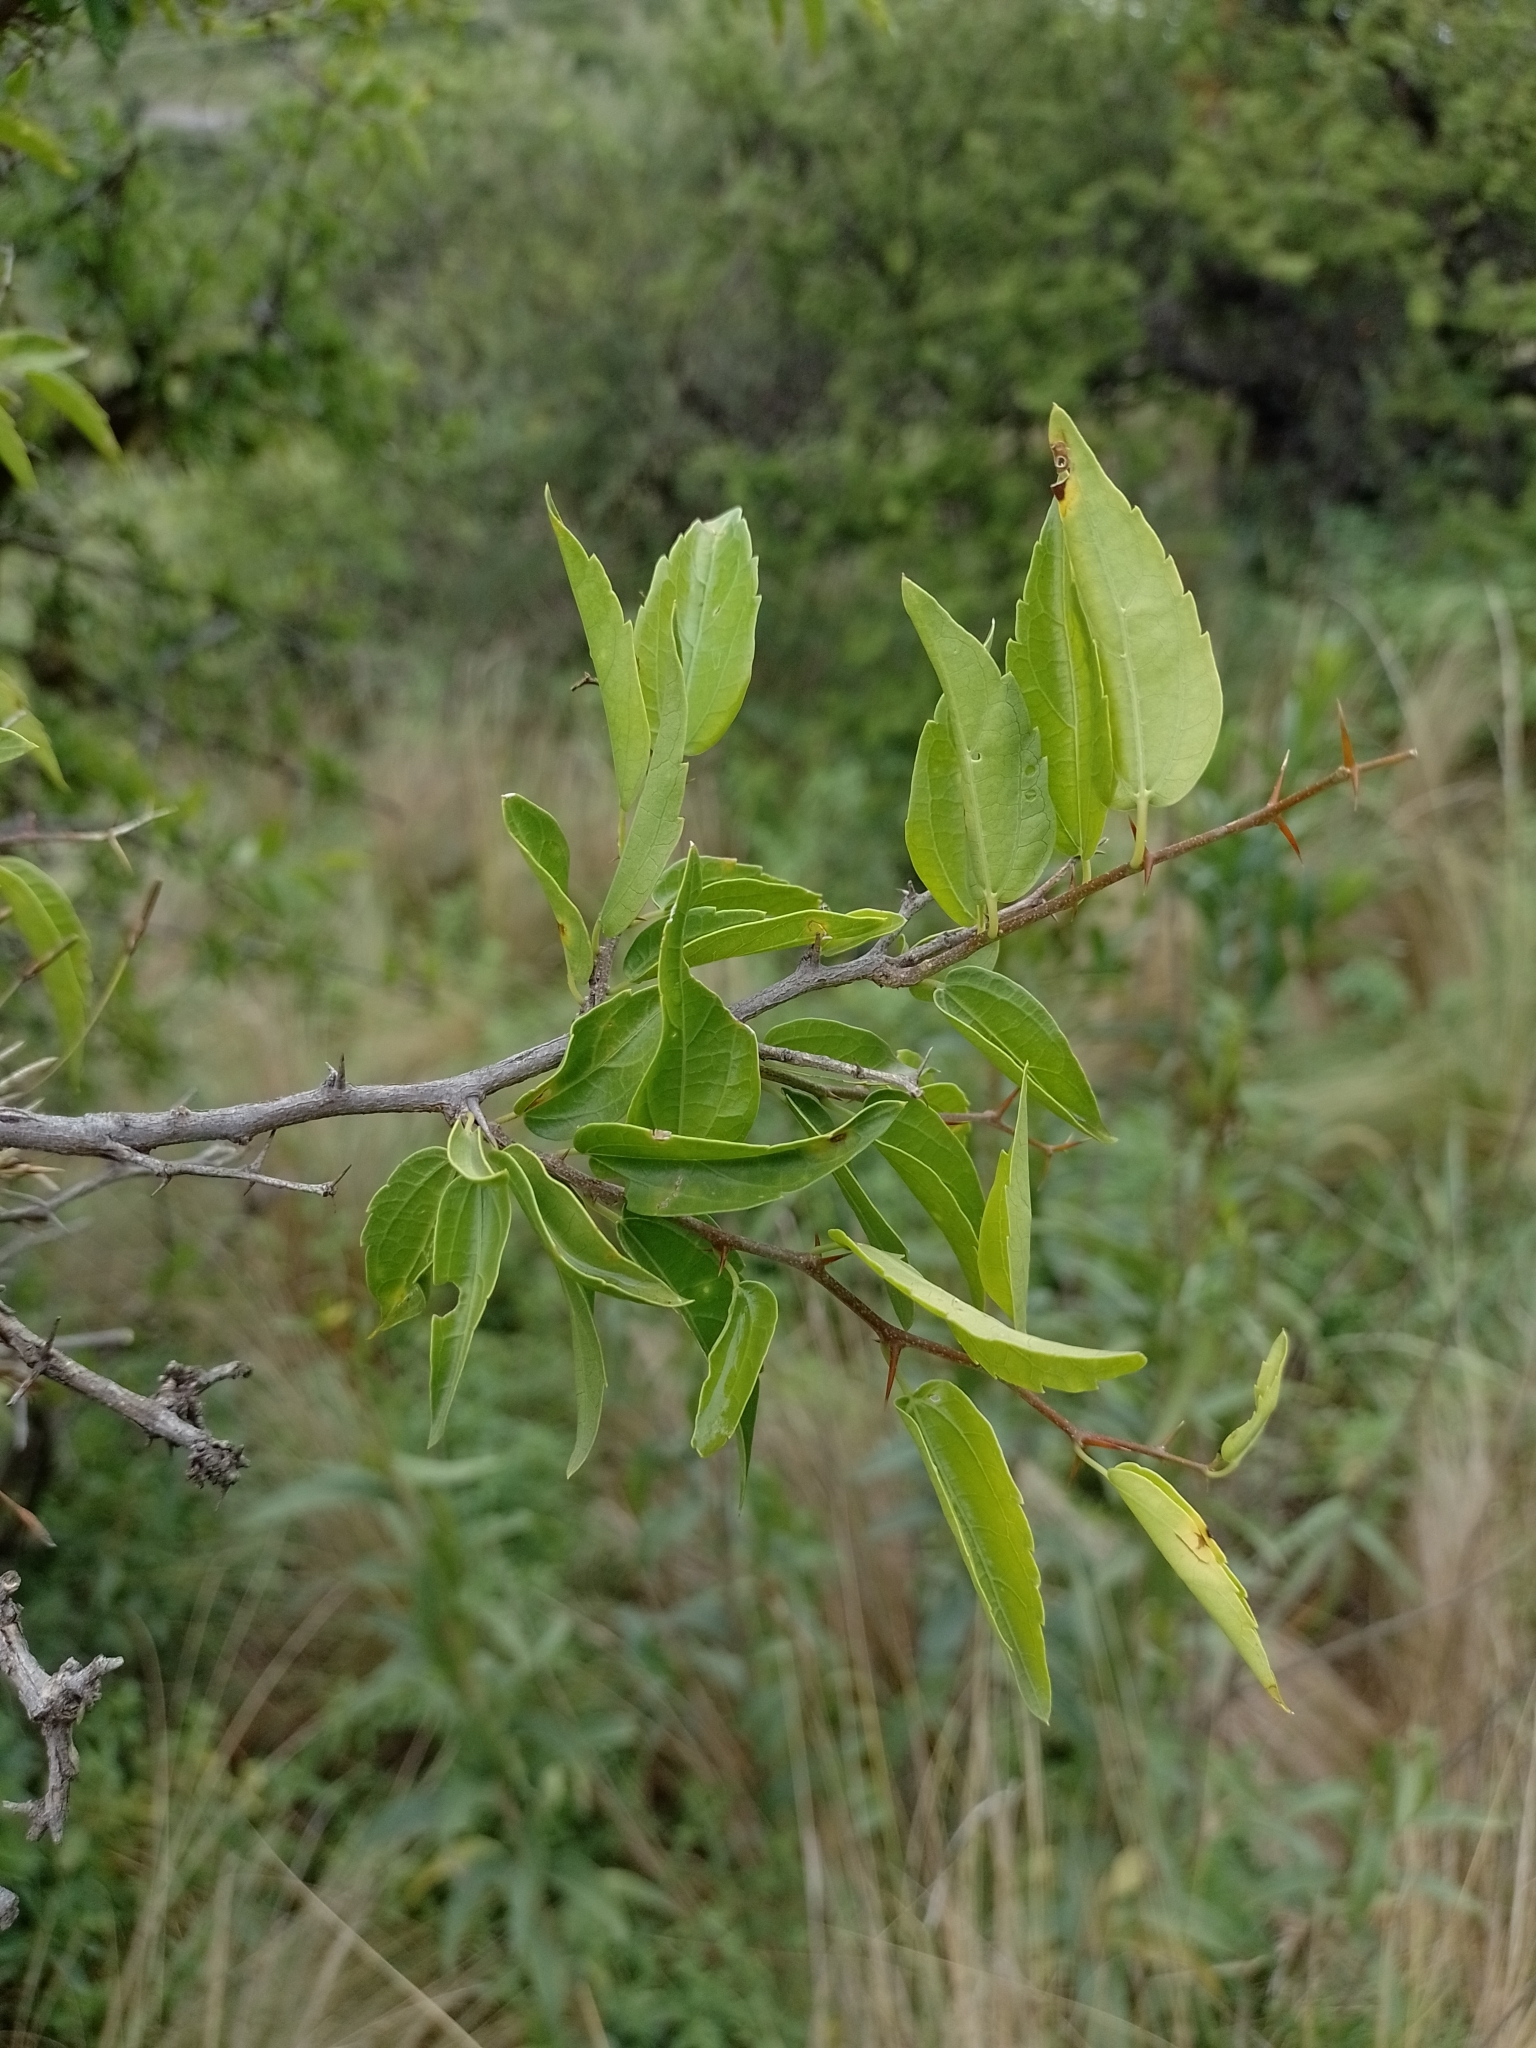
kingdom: Plantae
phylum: Tracheophyta
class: Magnoliopsida
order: Rosales
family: Cannabaceae
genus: Celtis
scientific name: Celtis tala
